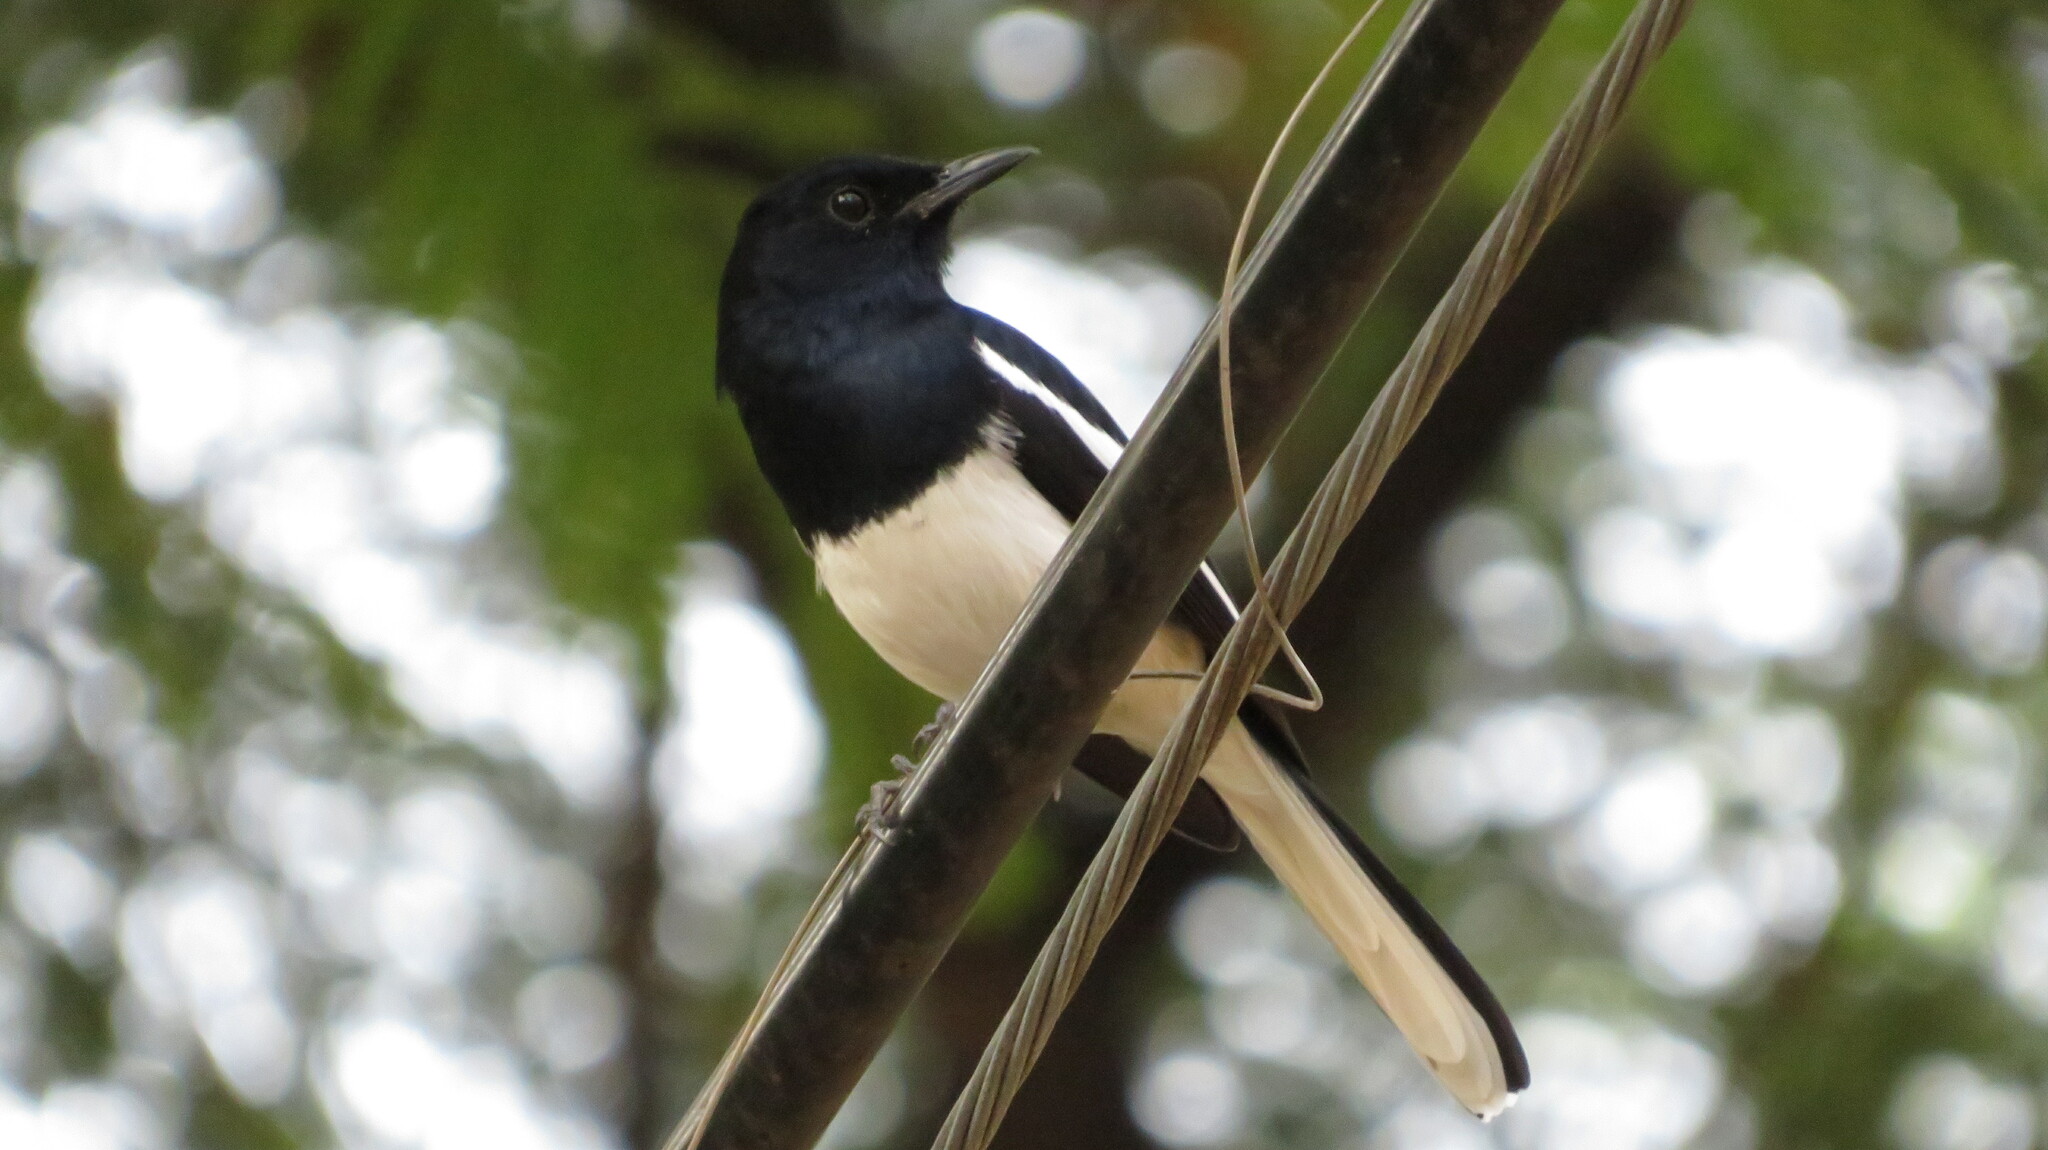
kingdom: Animalia
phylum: Chordata
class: Aves
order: Passeriformes
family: Muscicapidae
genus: Copsychus
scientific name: Copsychus saularis
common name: Oriental magpie-robin
